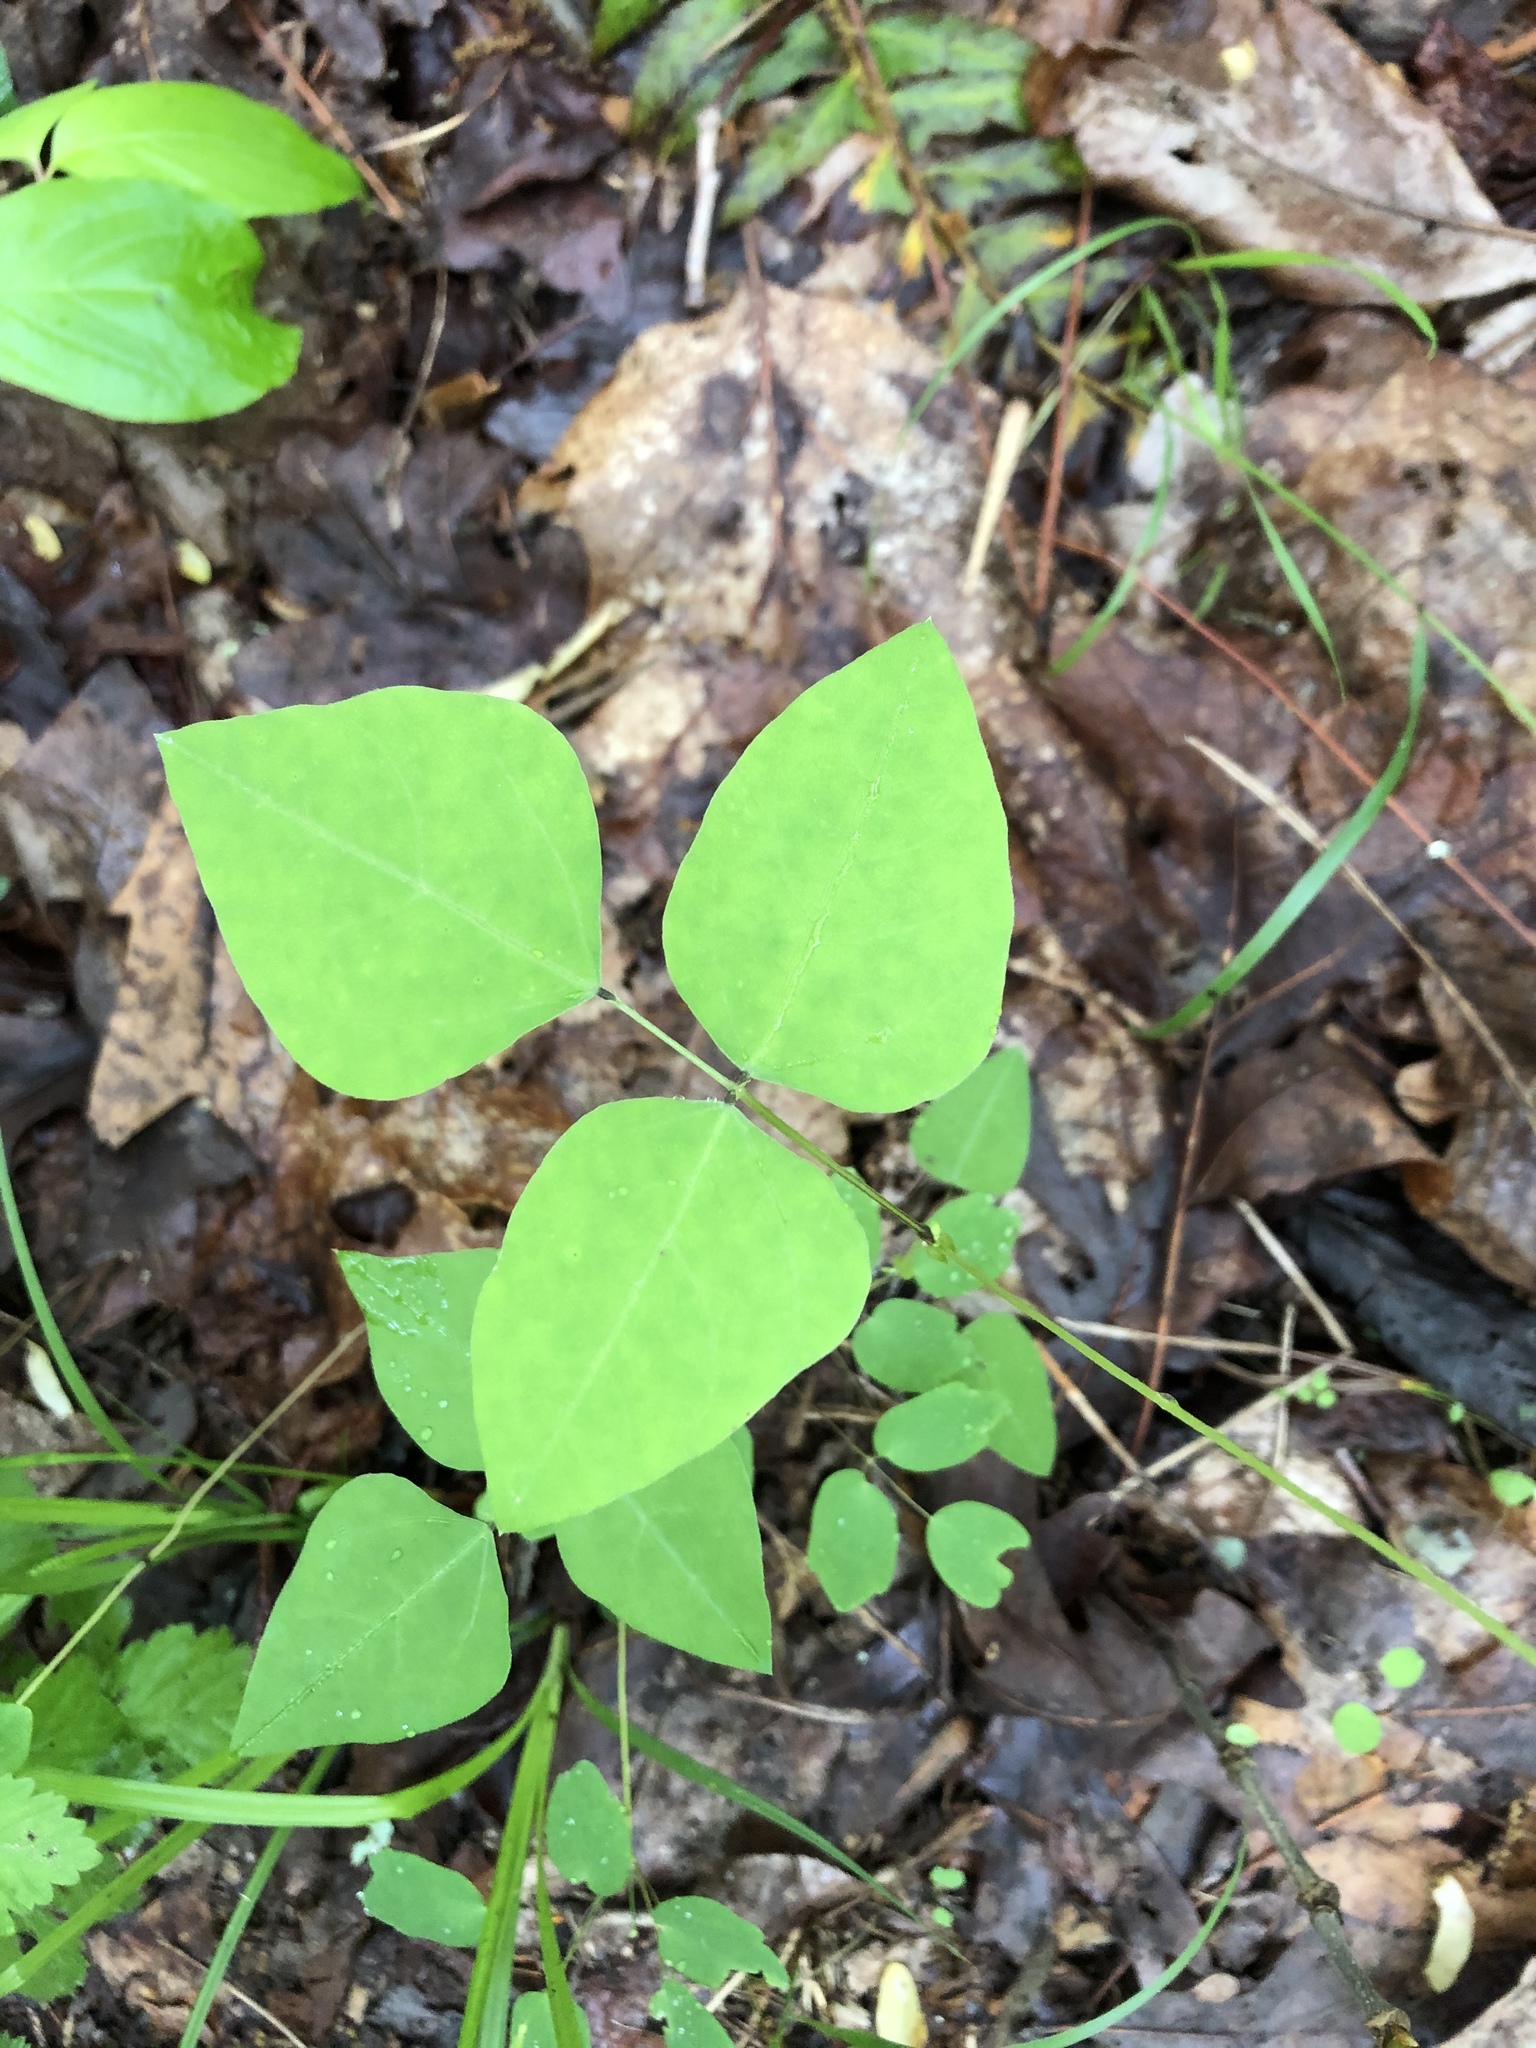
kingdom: Plantae
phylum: Tracheophyta
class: Magnoliopsida
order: Fabales
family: Fabaceae
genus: Amphicarpaea
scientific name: Amphicarpaea bracteata
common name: American hog peanut
